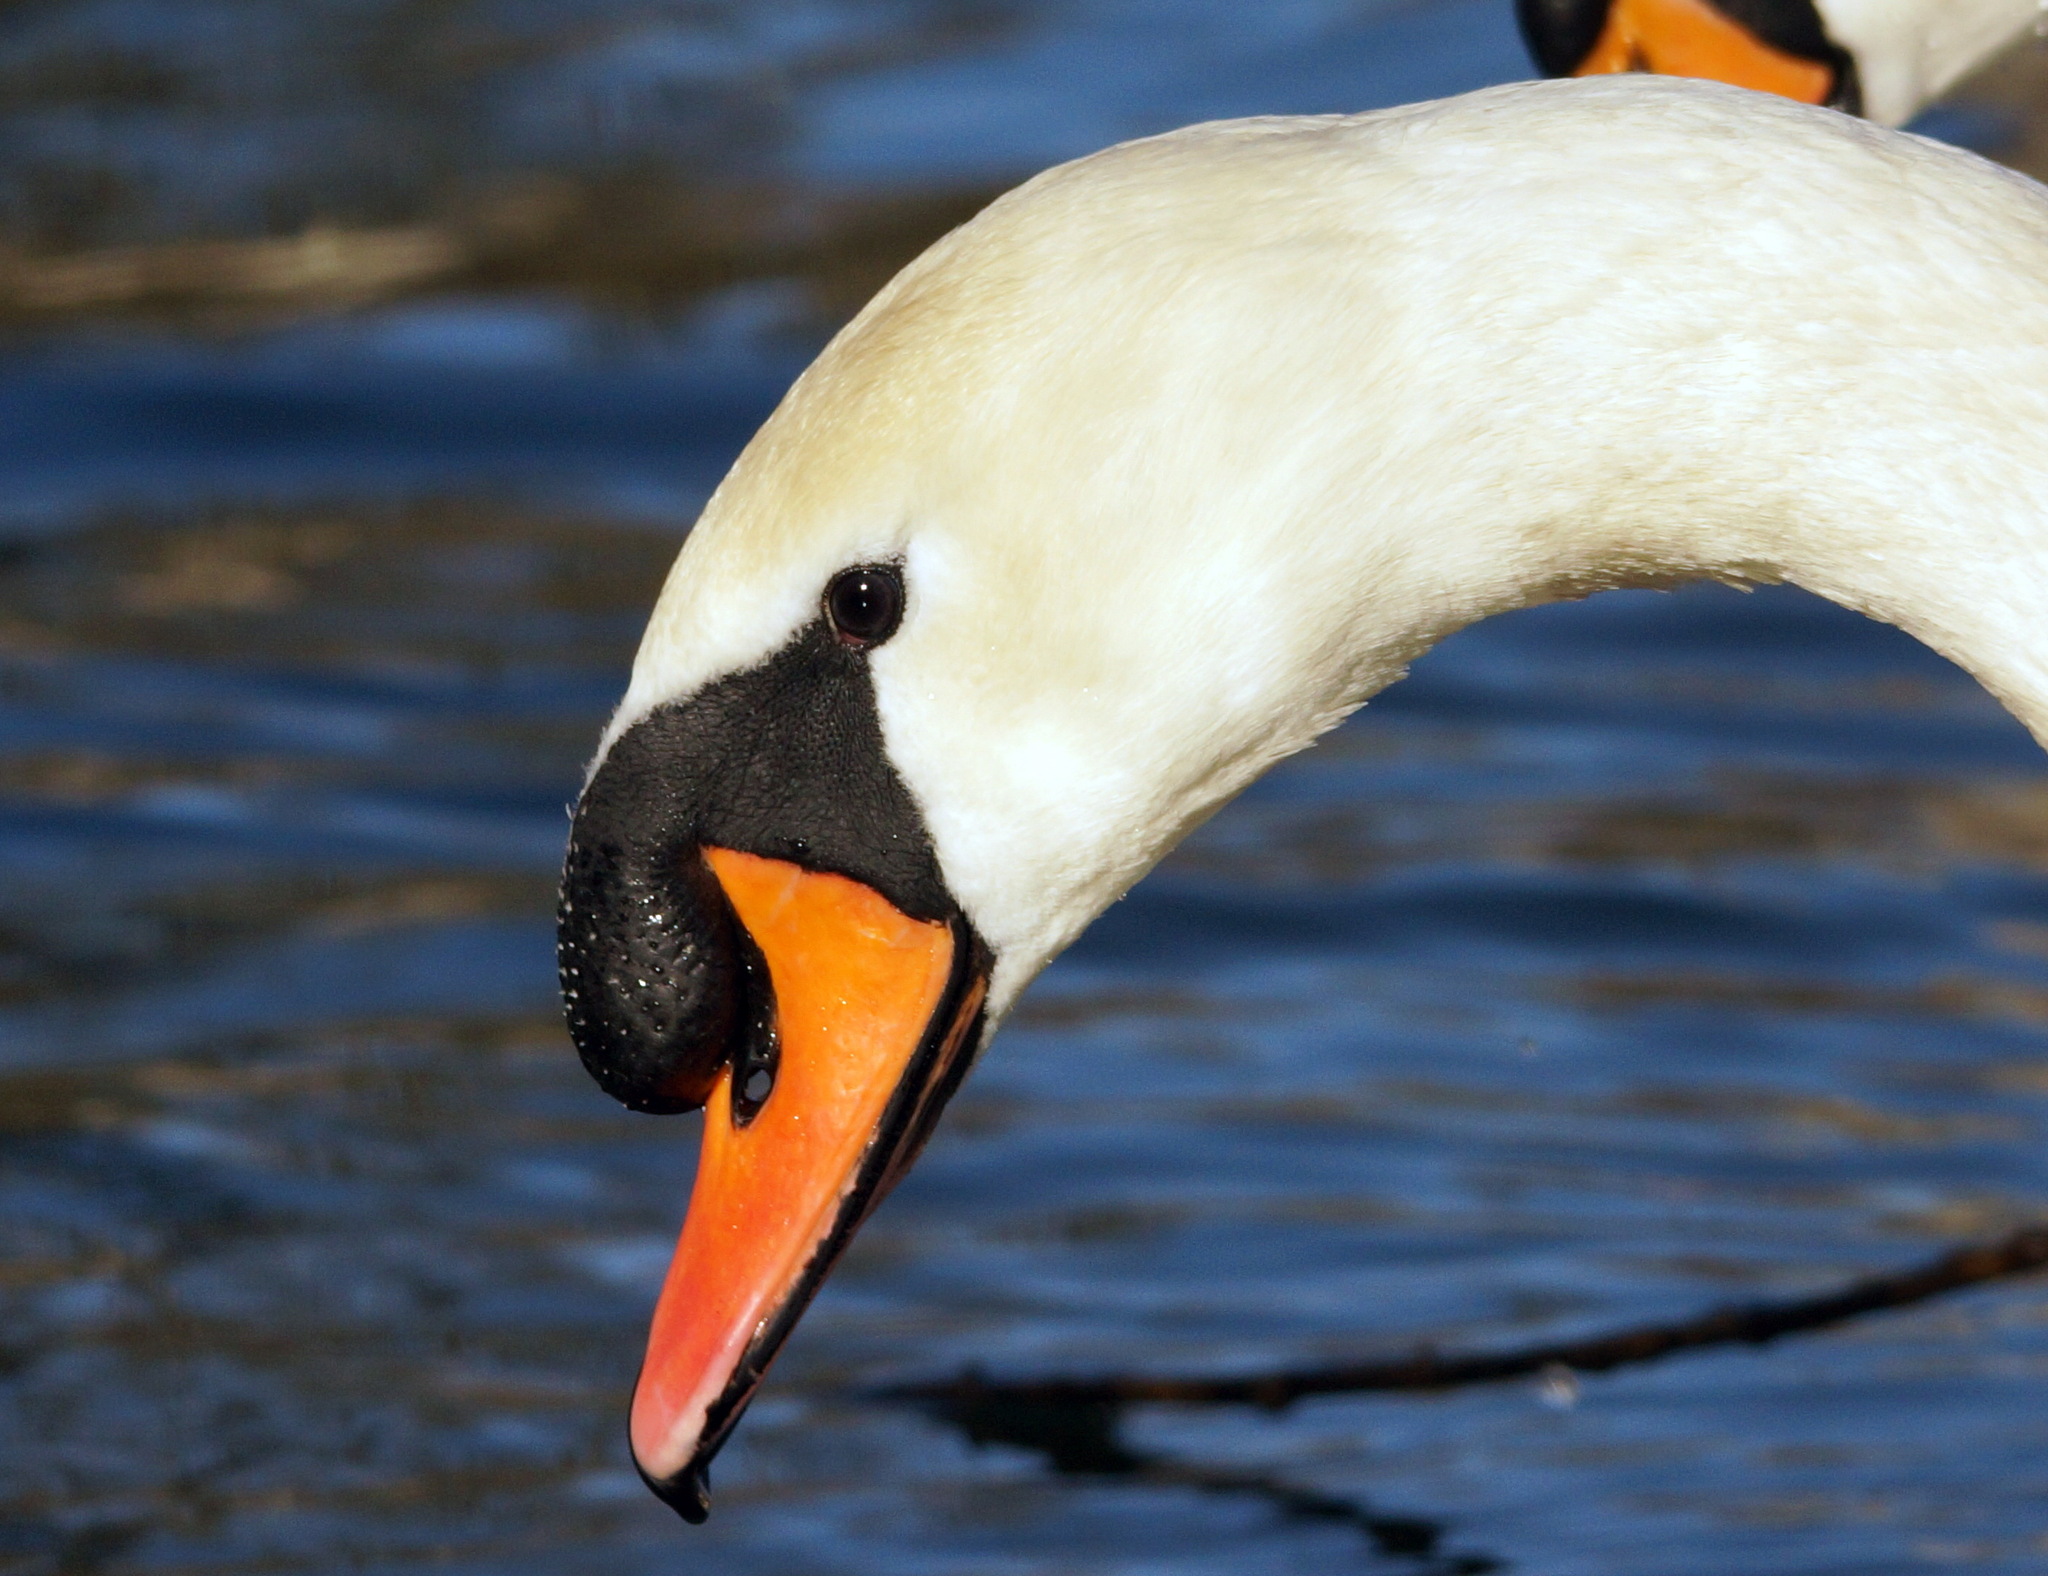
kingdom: Animalia
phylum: Chordata
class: Aves
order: Anseriformes
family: Anatidae
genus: Cygnus
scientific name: Cygnus olor
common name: Mute swan
